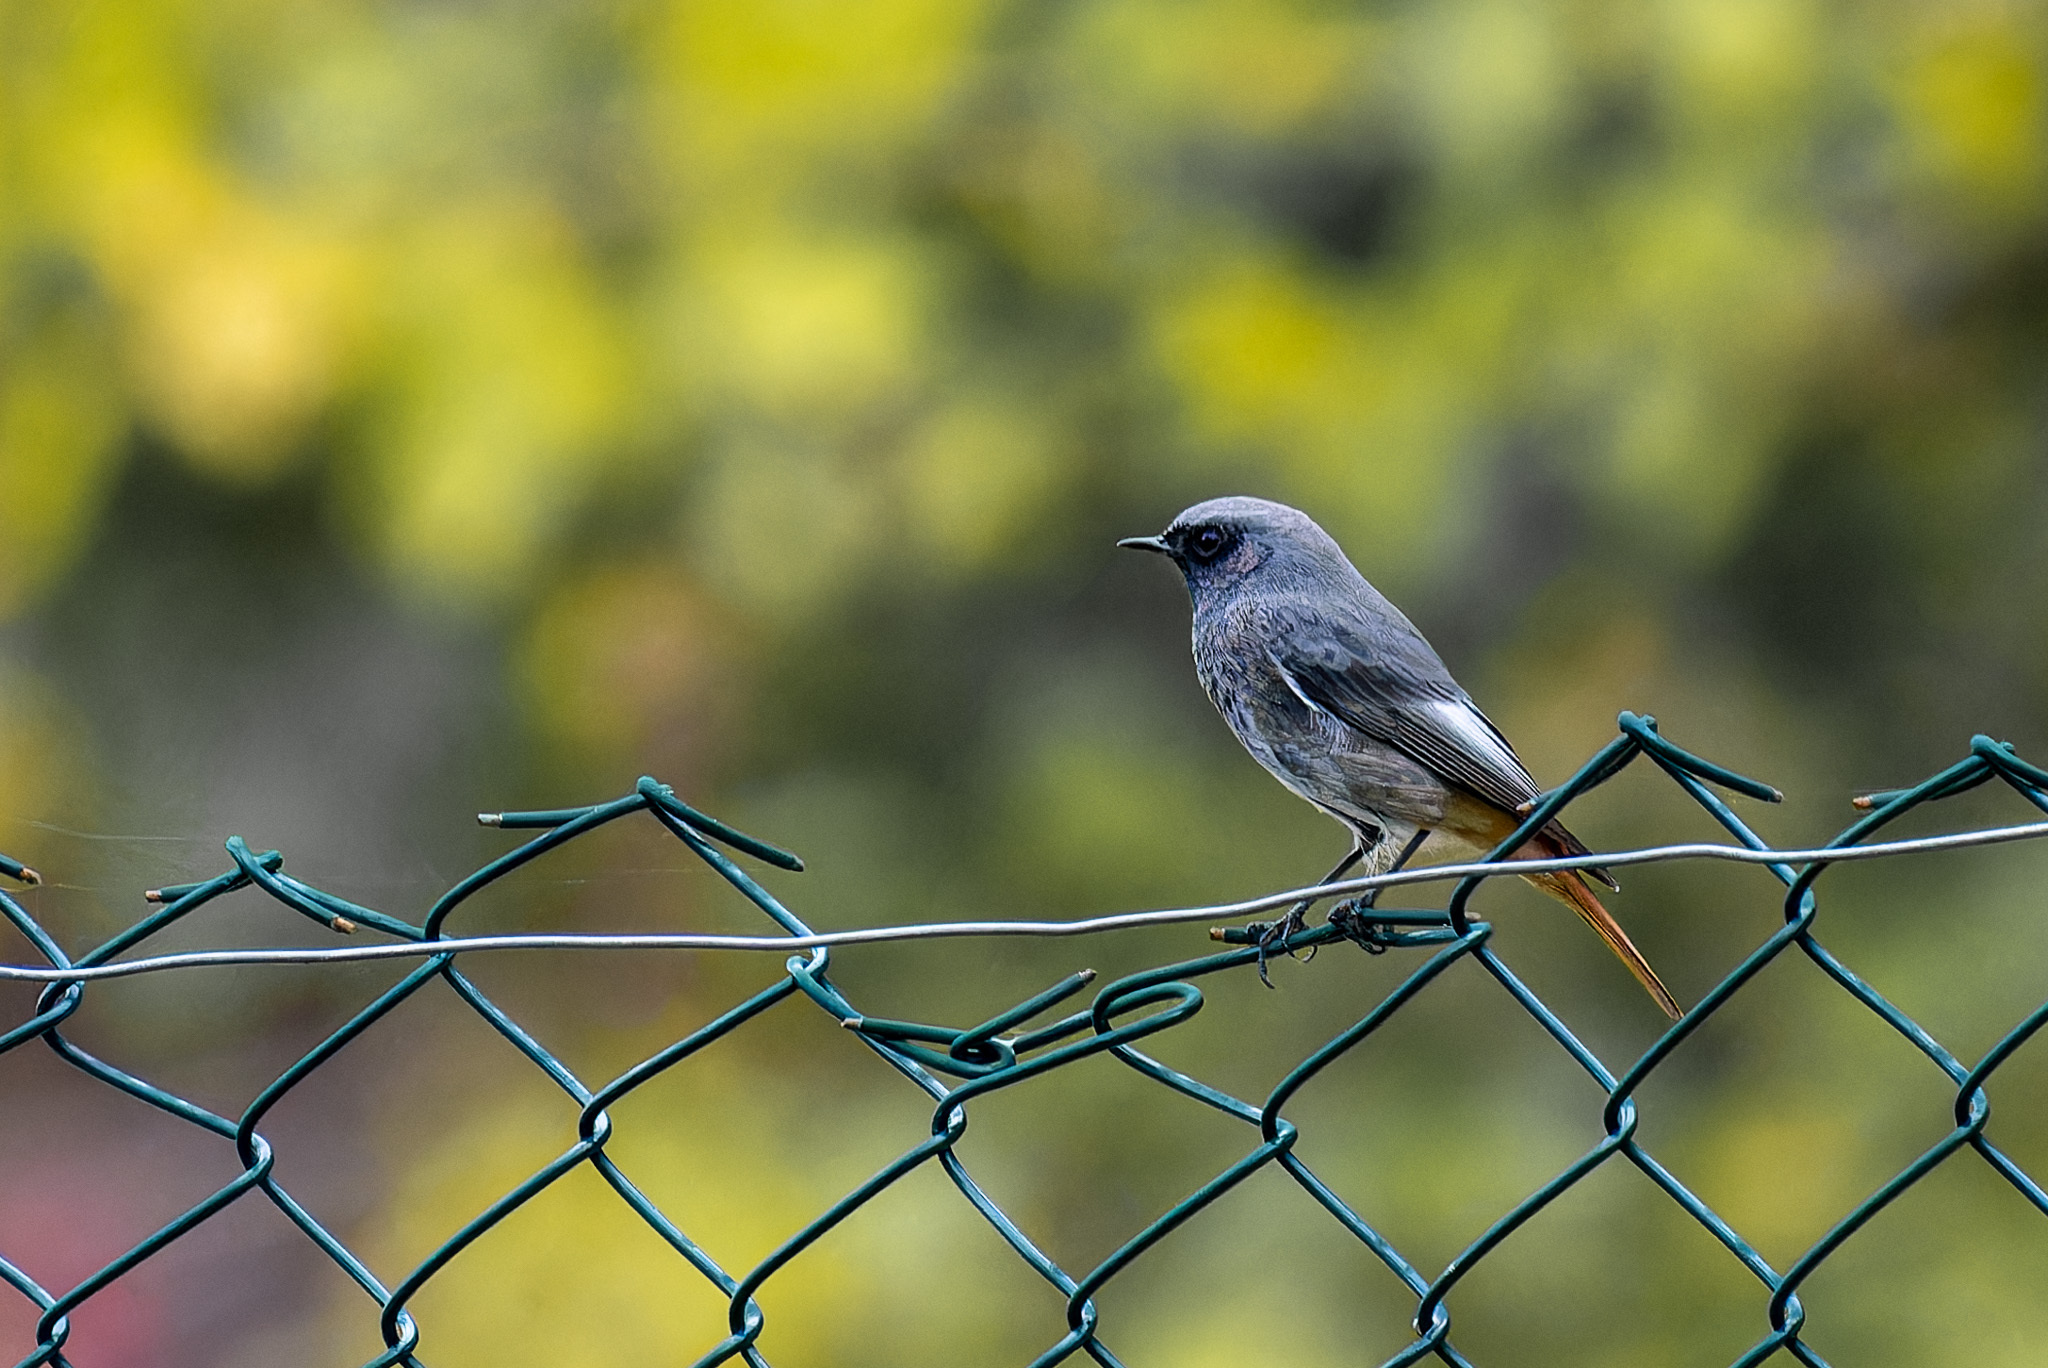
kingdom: Animalia
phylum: Chordata
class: Aves
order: Passeriformes
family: Muscicapidae
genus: Phoenicurus
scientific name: Phoenicurus ochruros
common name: Black redstart
